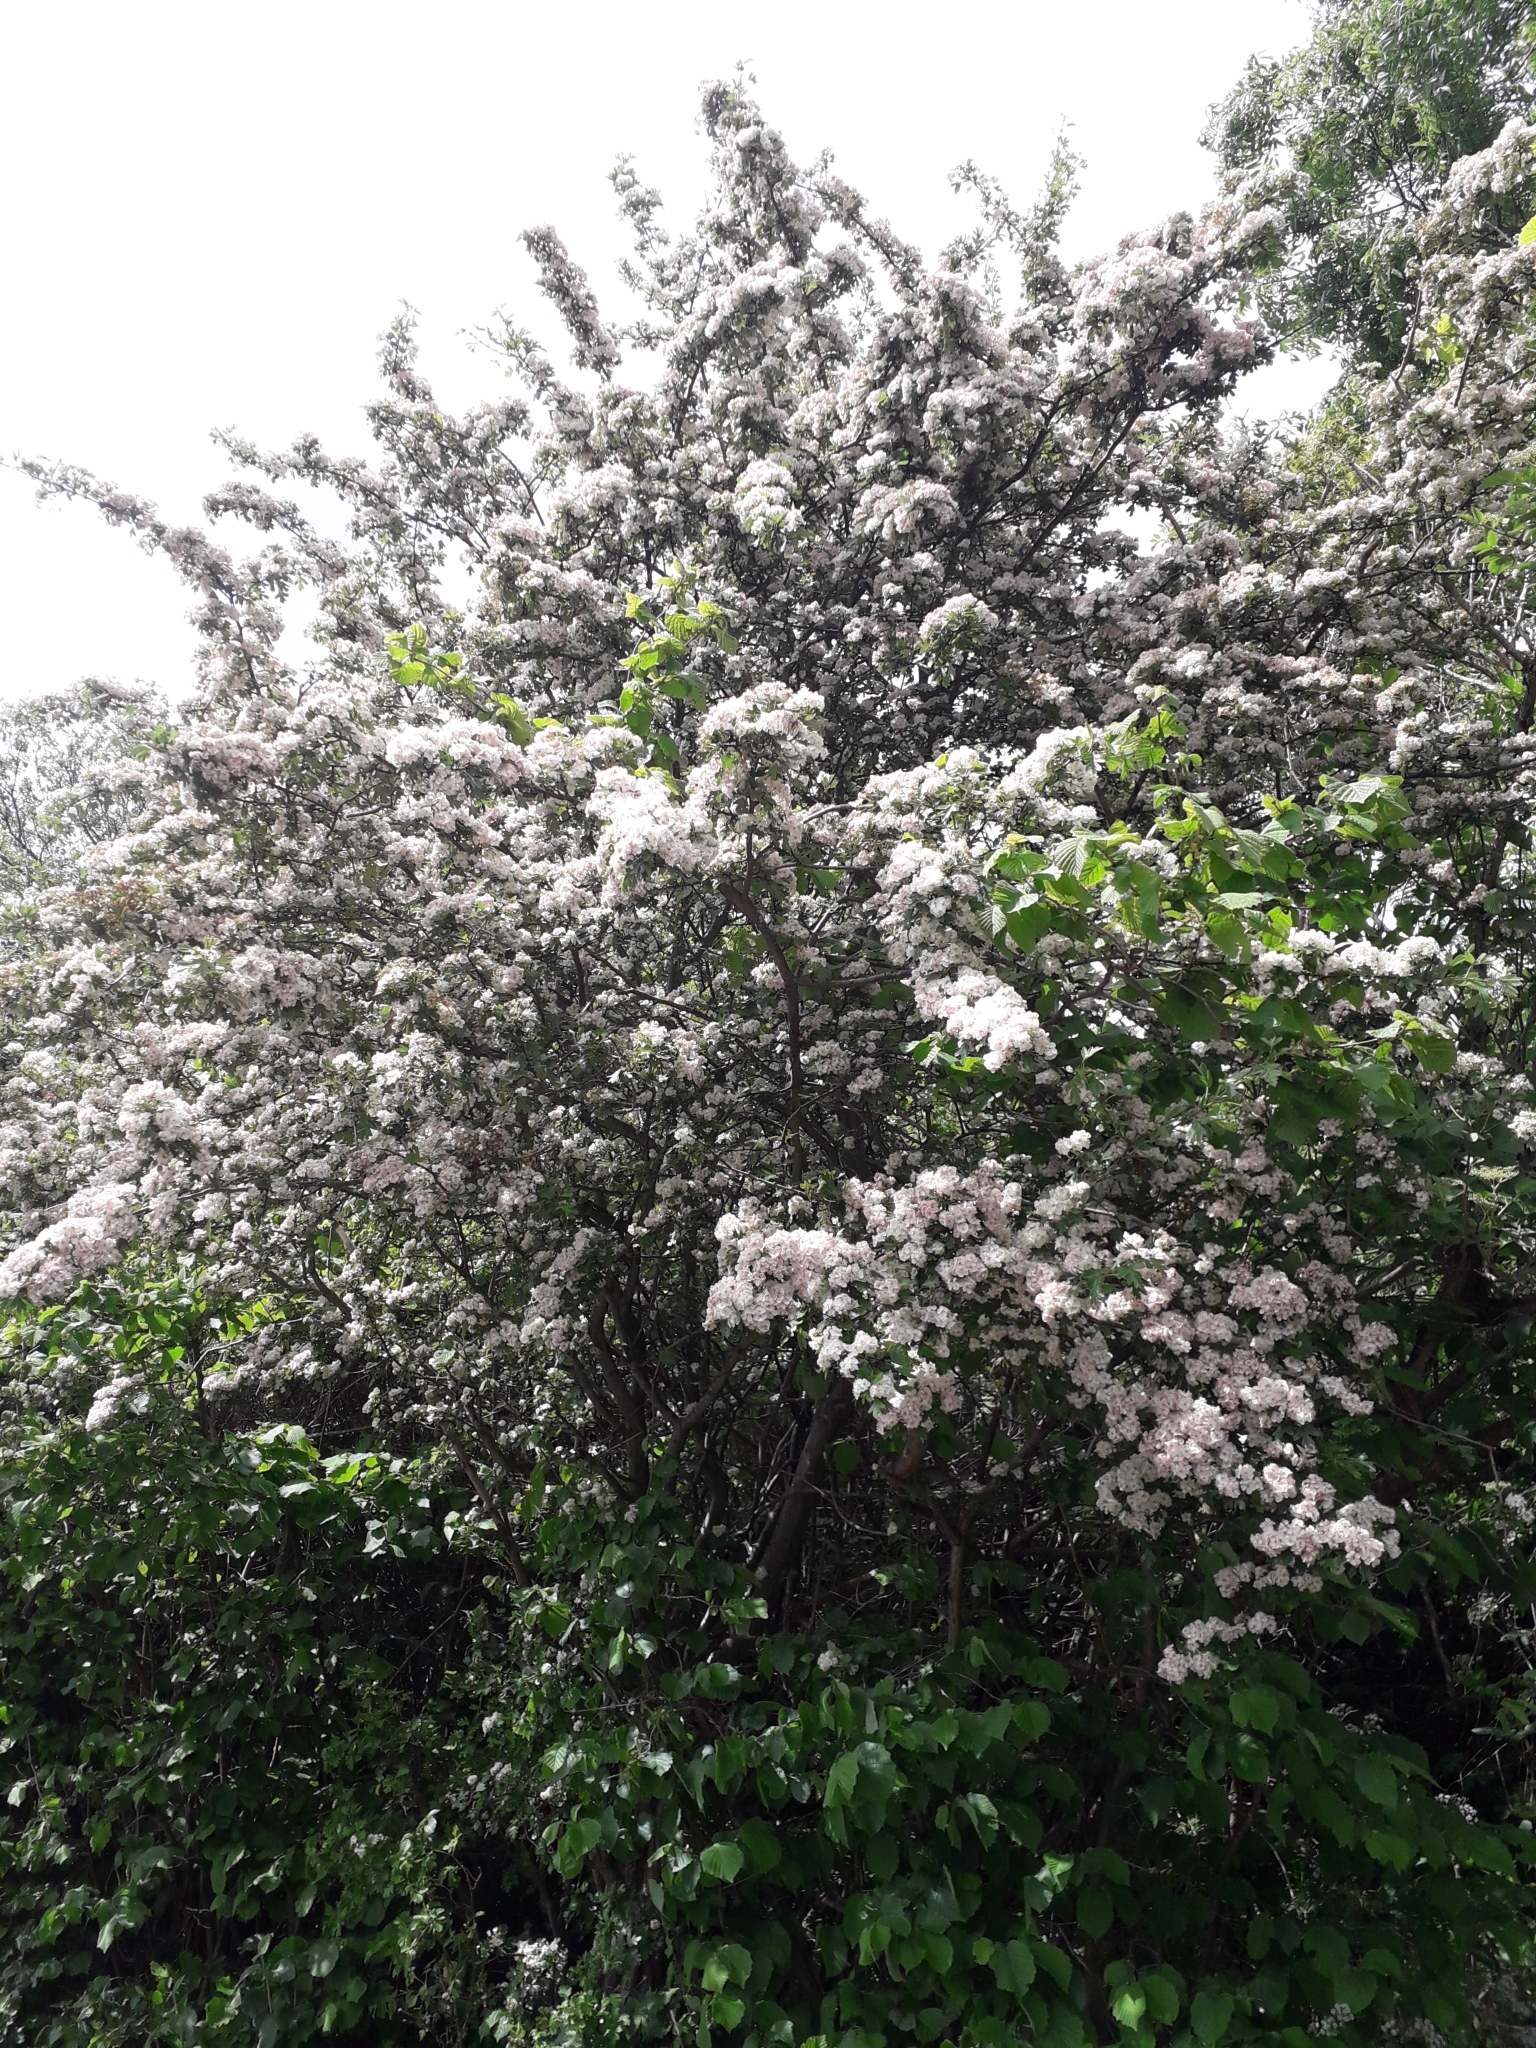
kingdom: Plantae
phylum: Tracheophyta
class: Magnoliopsida
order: Rosales
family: Rosaceae
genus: Crataegus
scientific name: Crataegus monogyna
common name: Hawthorn
